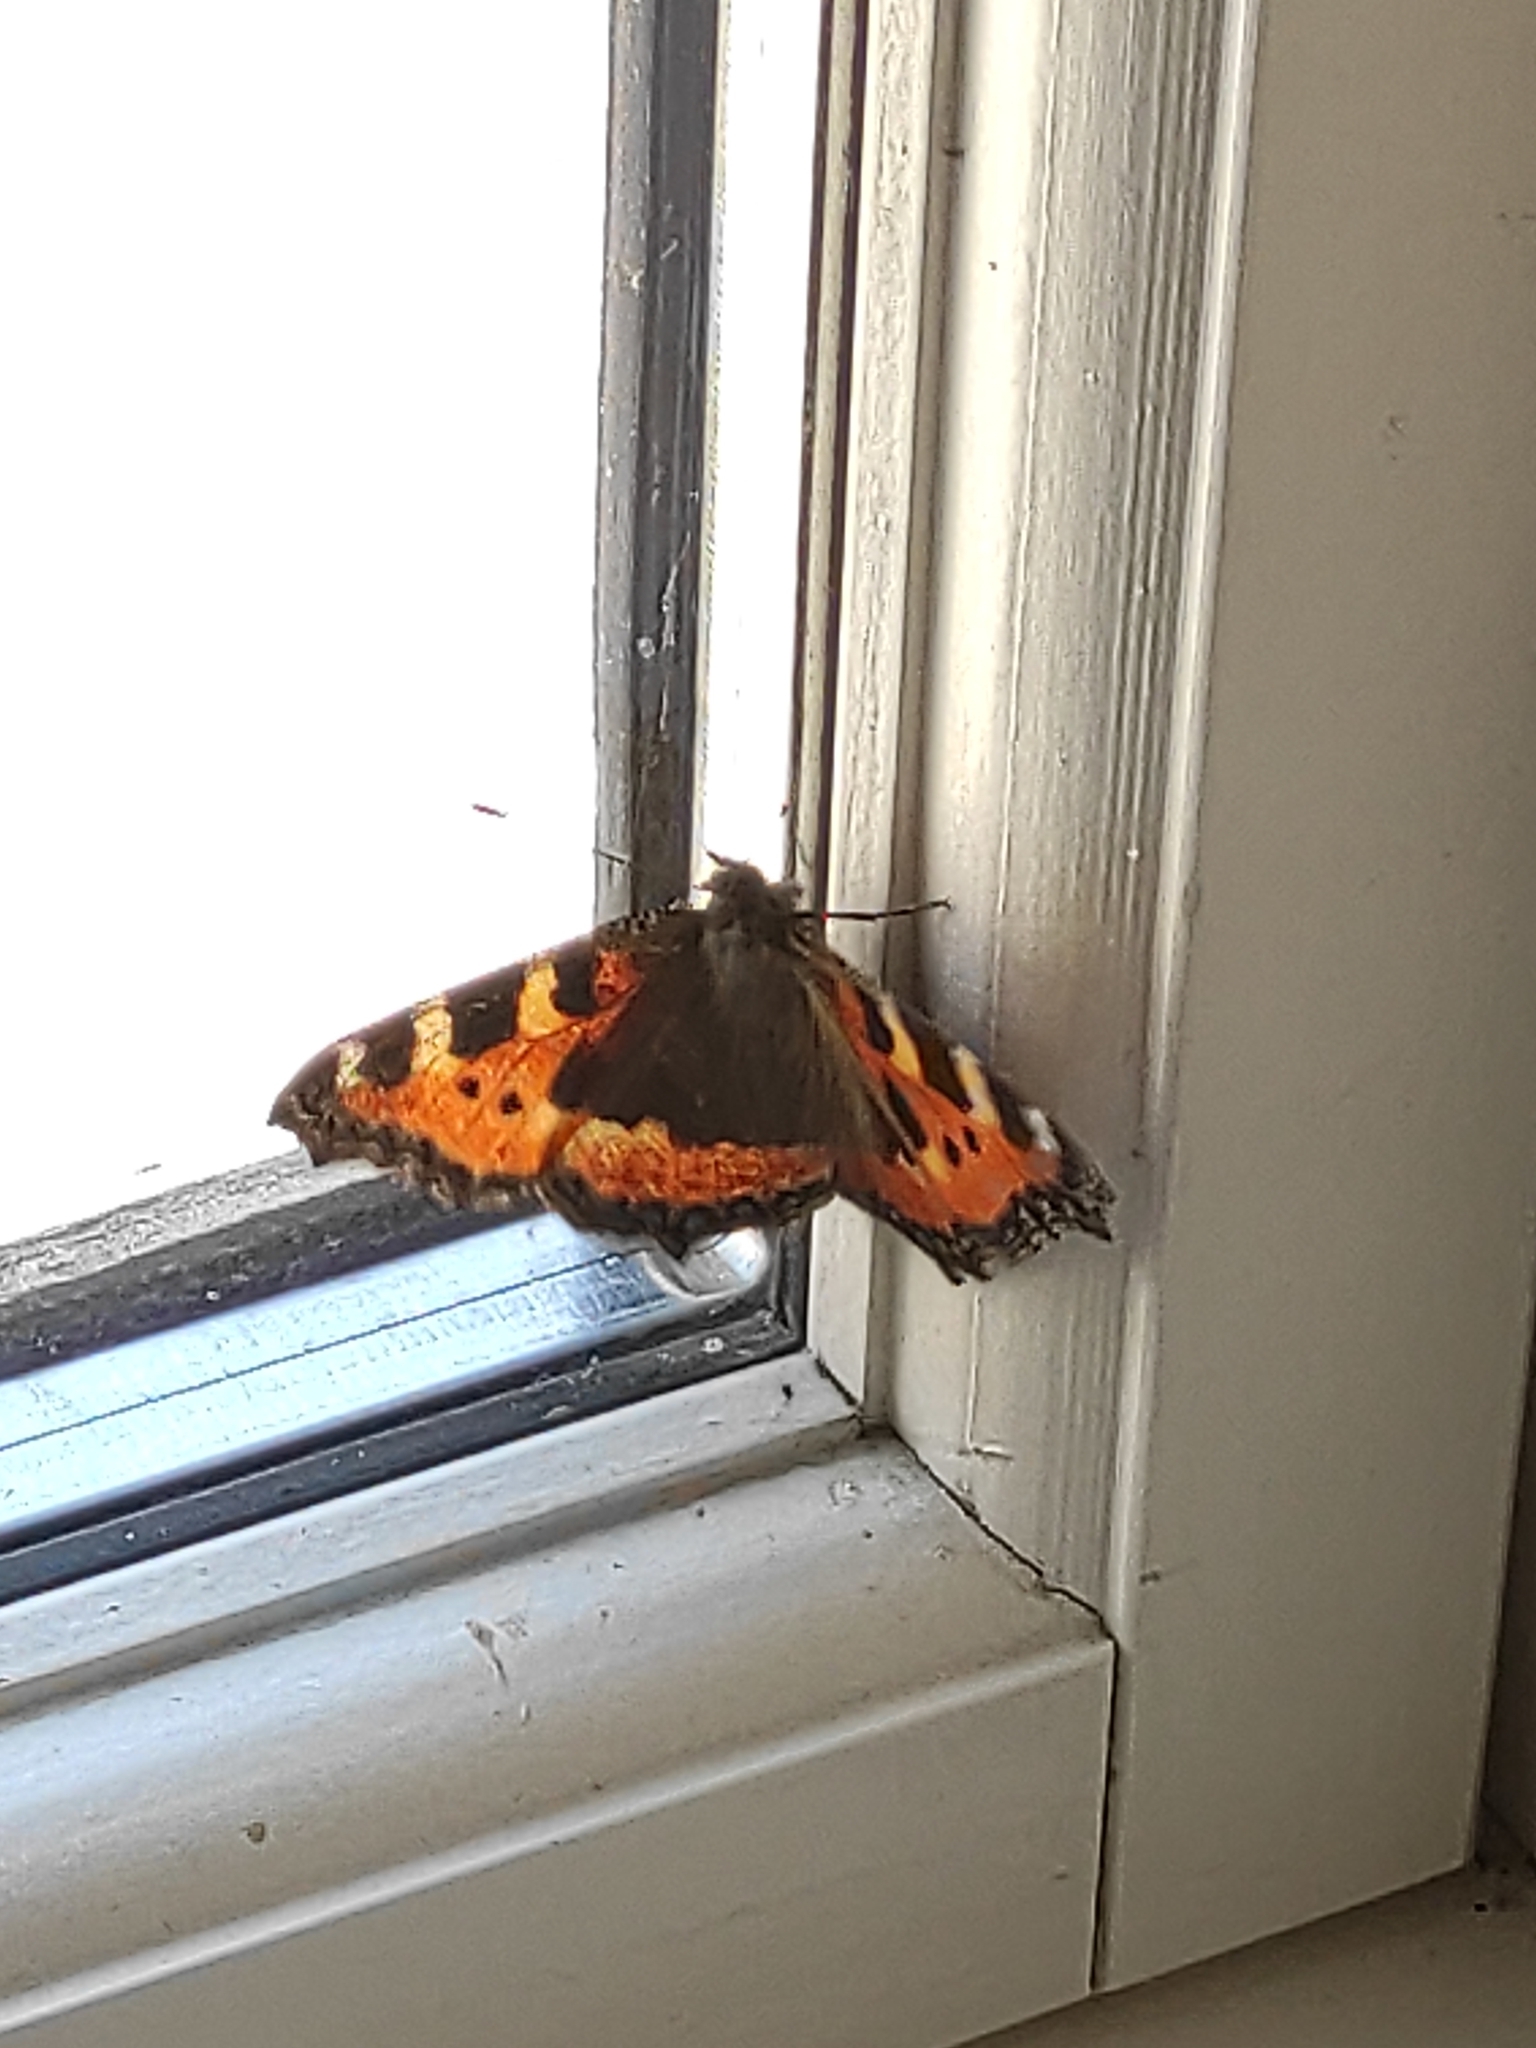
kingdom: Animalia
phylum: Arthropoda
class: Insecta
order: Lepidoptera
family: Nymphalidae
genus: Aglais
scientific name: Aglais urticae
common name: Small tortoiseshell
